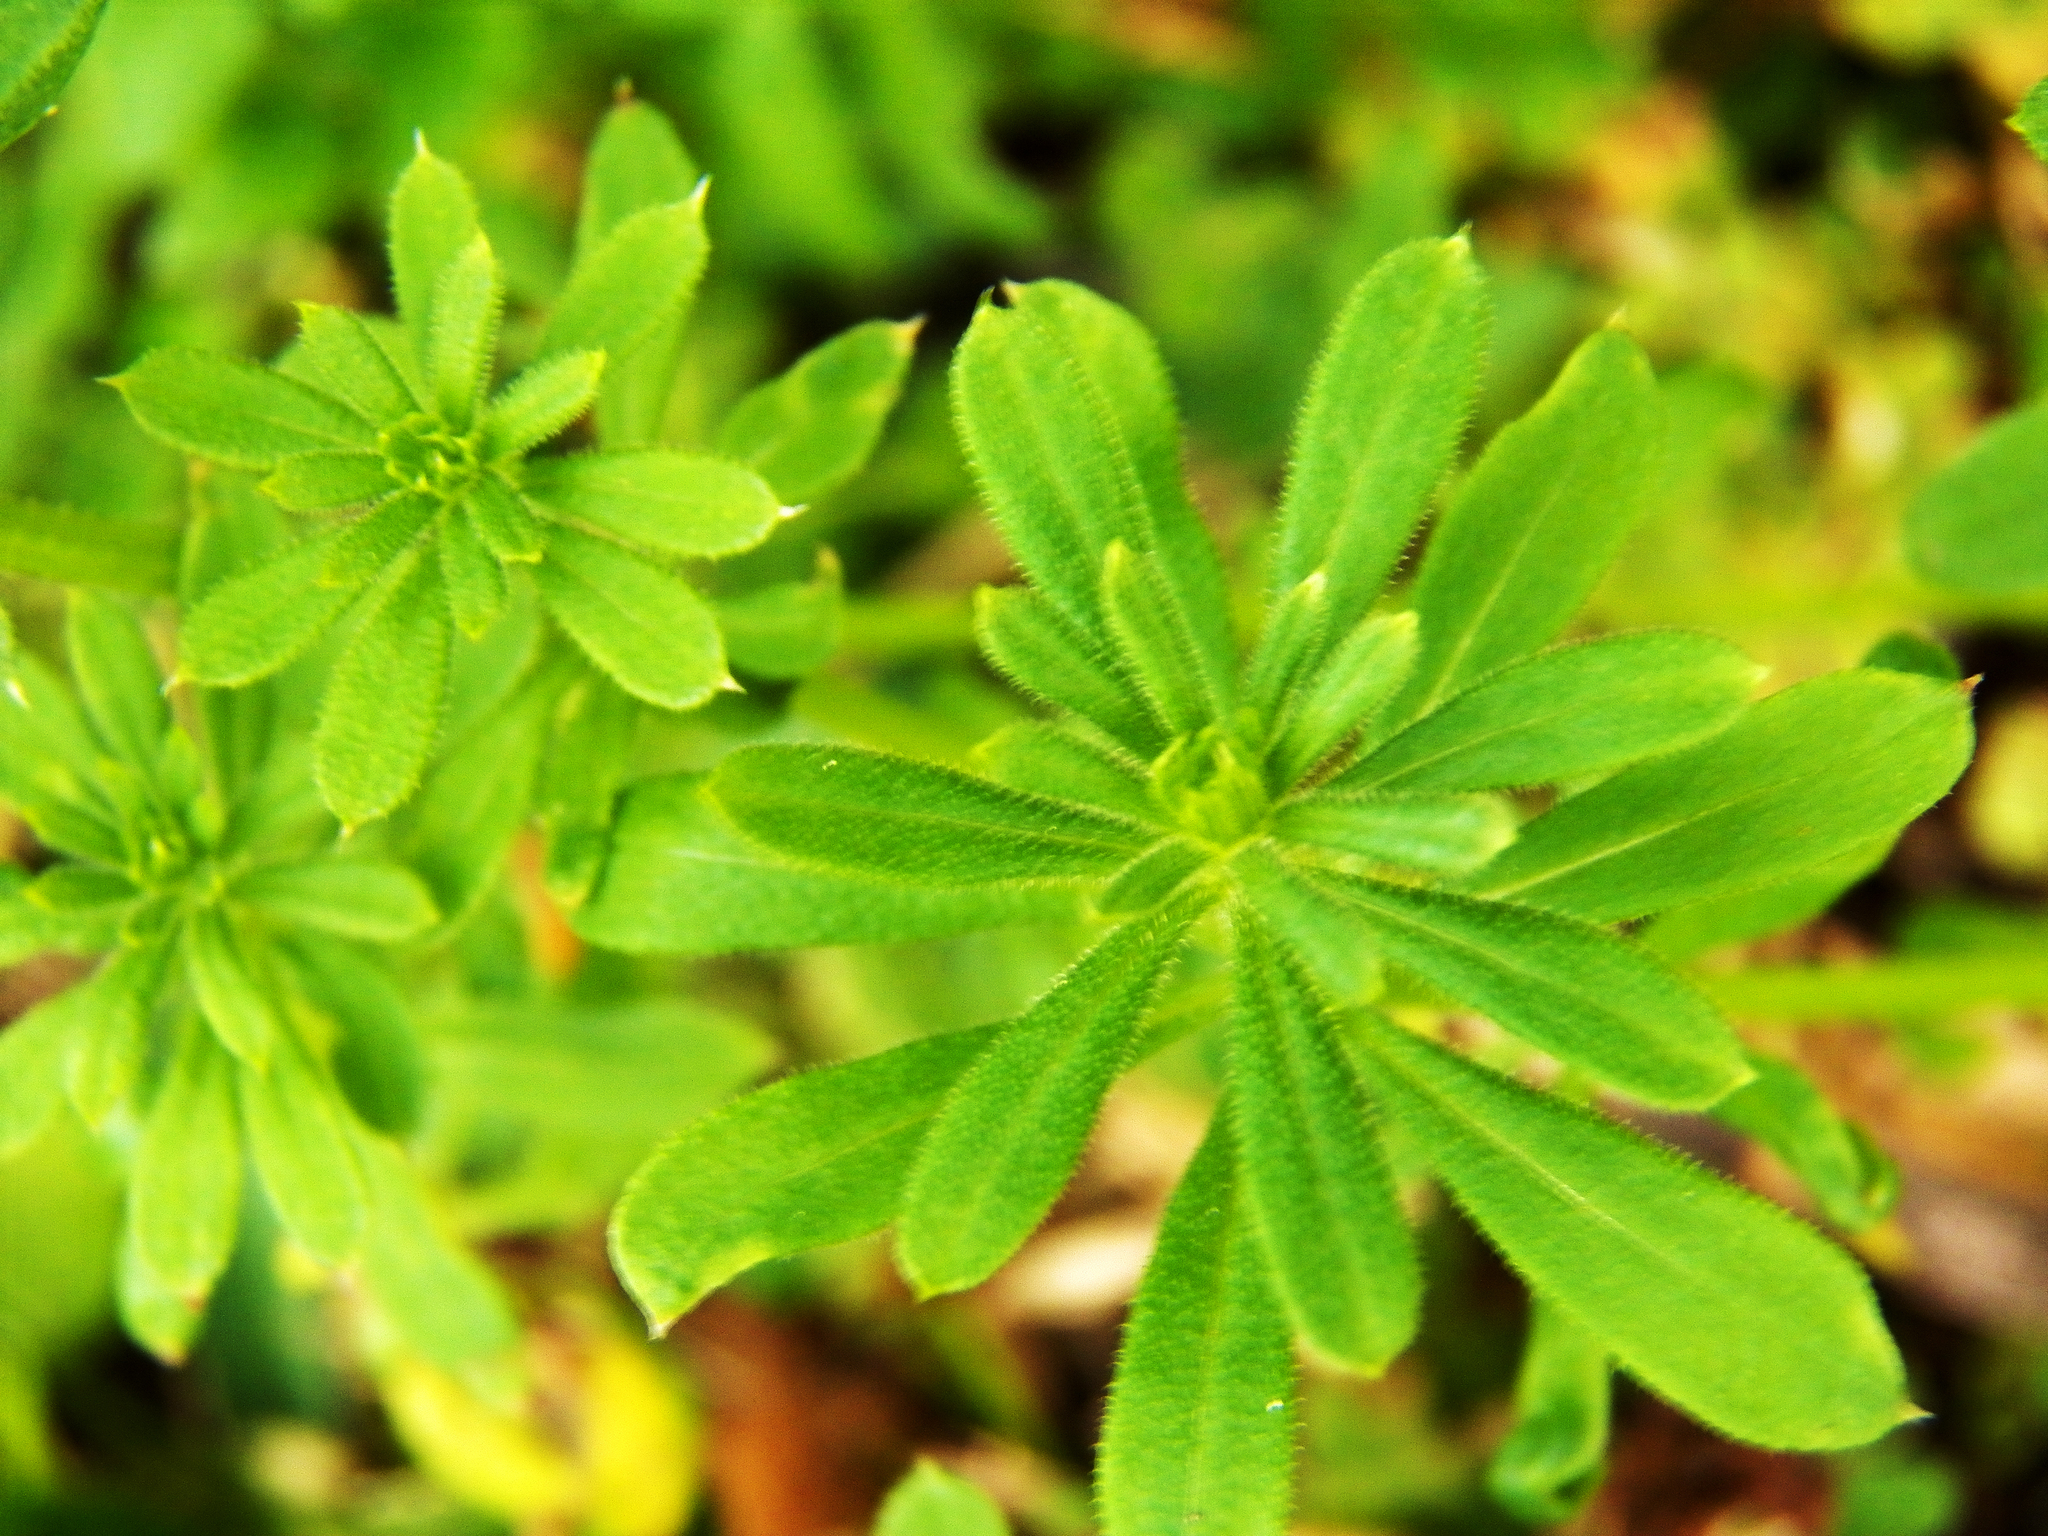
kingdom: Plantae
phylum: Tracheophyta
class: Magnoliopsida
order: Gentianales
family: Rubiaceae
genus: Galium
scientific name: Galium aparine
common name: Cleavers
